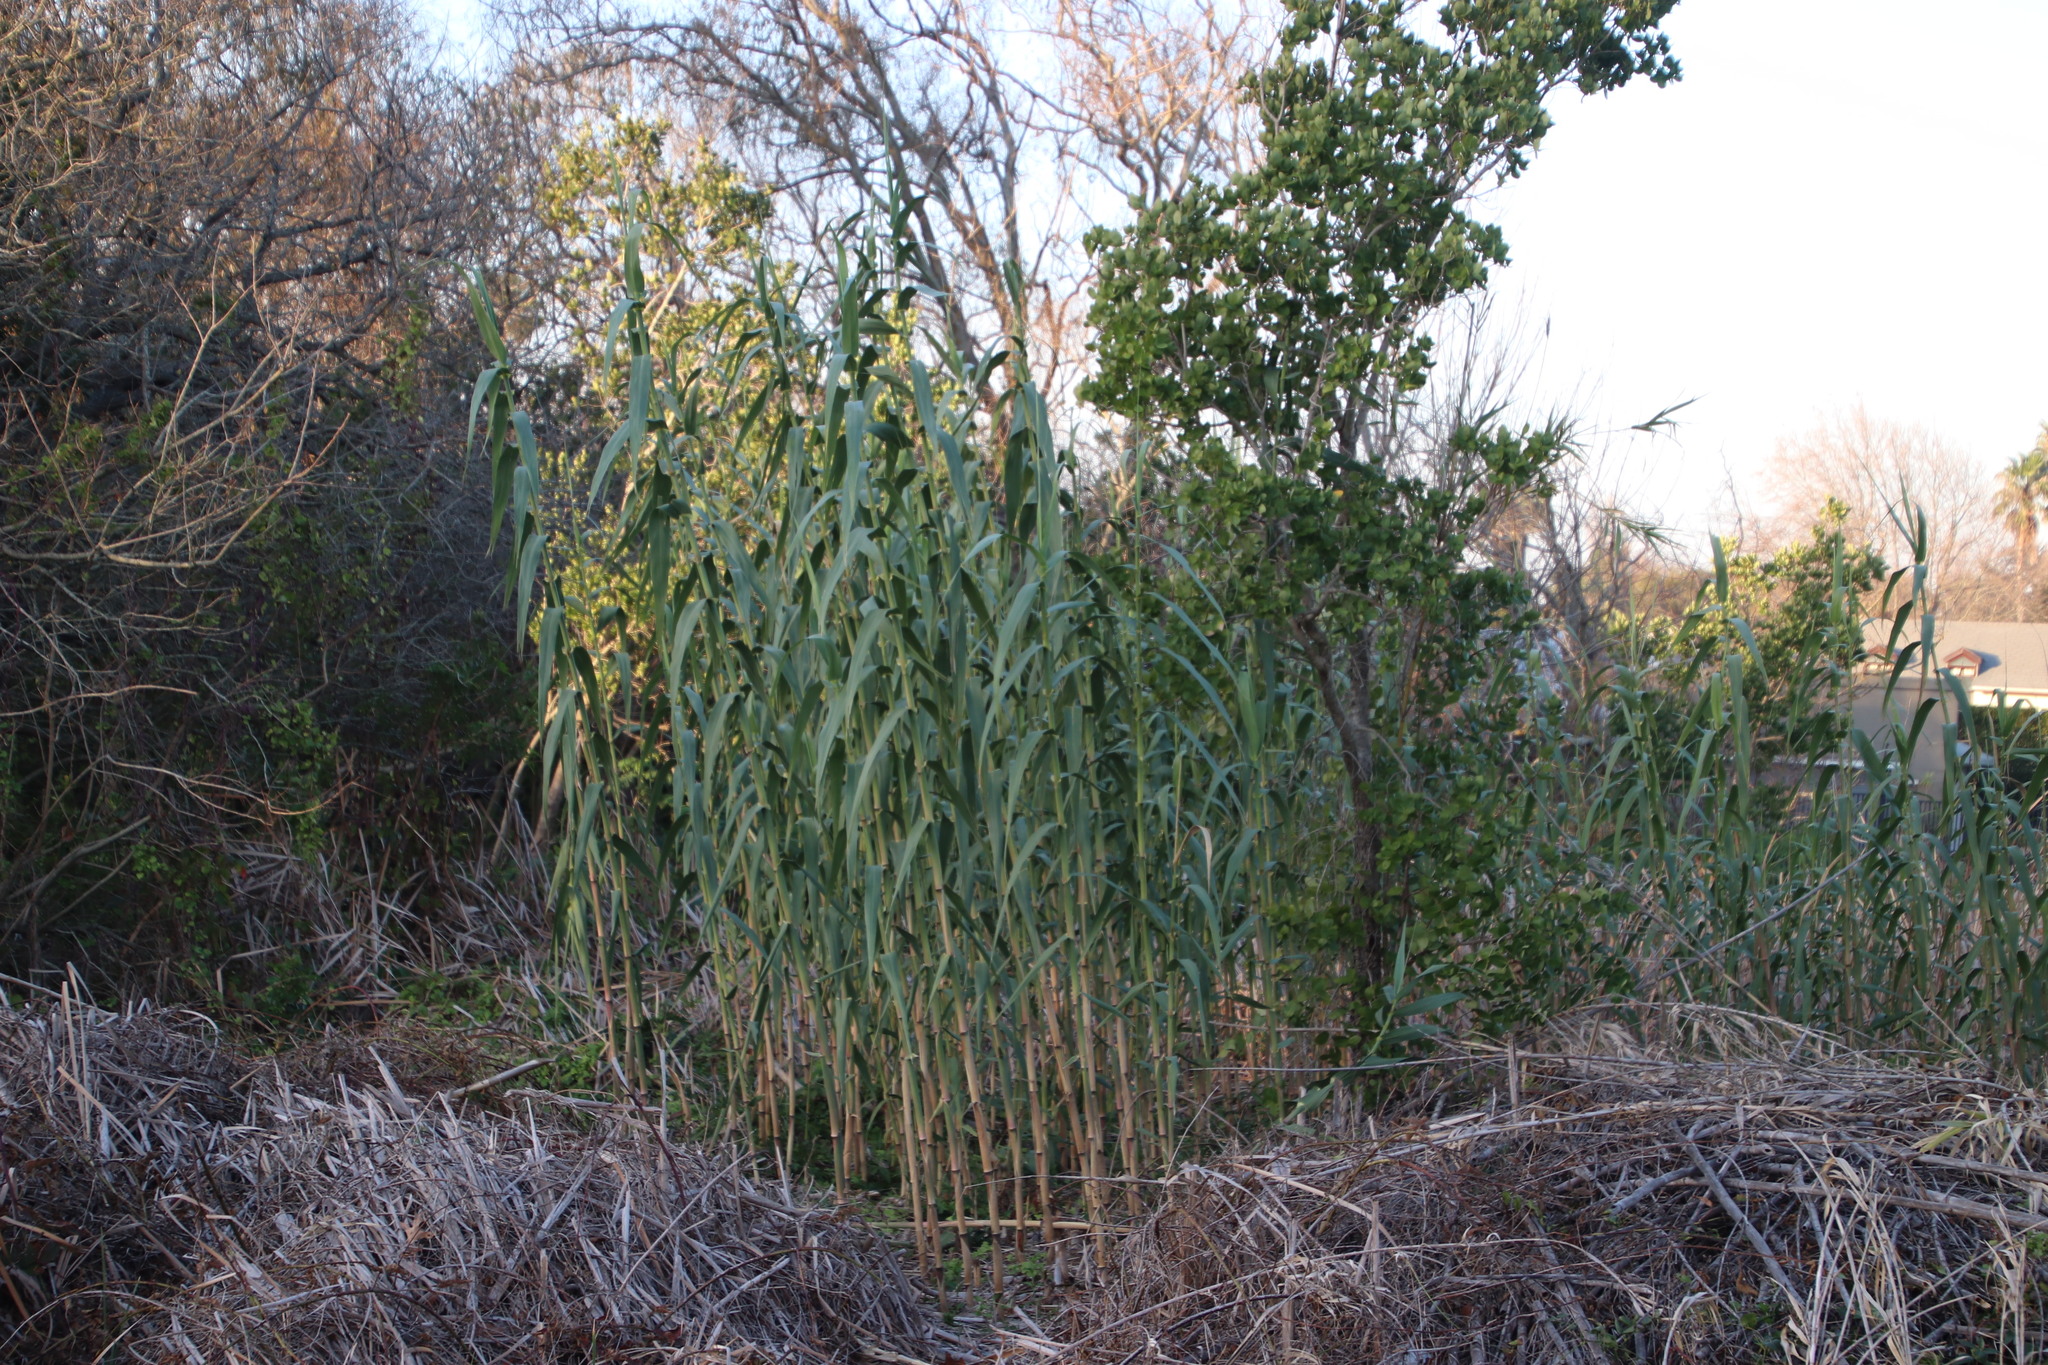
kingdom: Plantae
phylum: Tracheophyta
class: Liliopsida
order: Poales
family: Poaceae
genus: Arundo
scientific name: Arundo donax
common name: Giant reed
